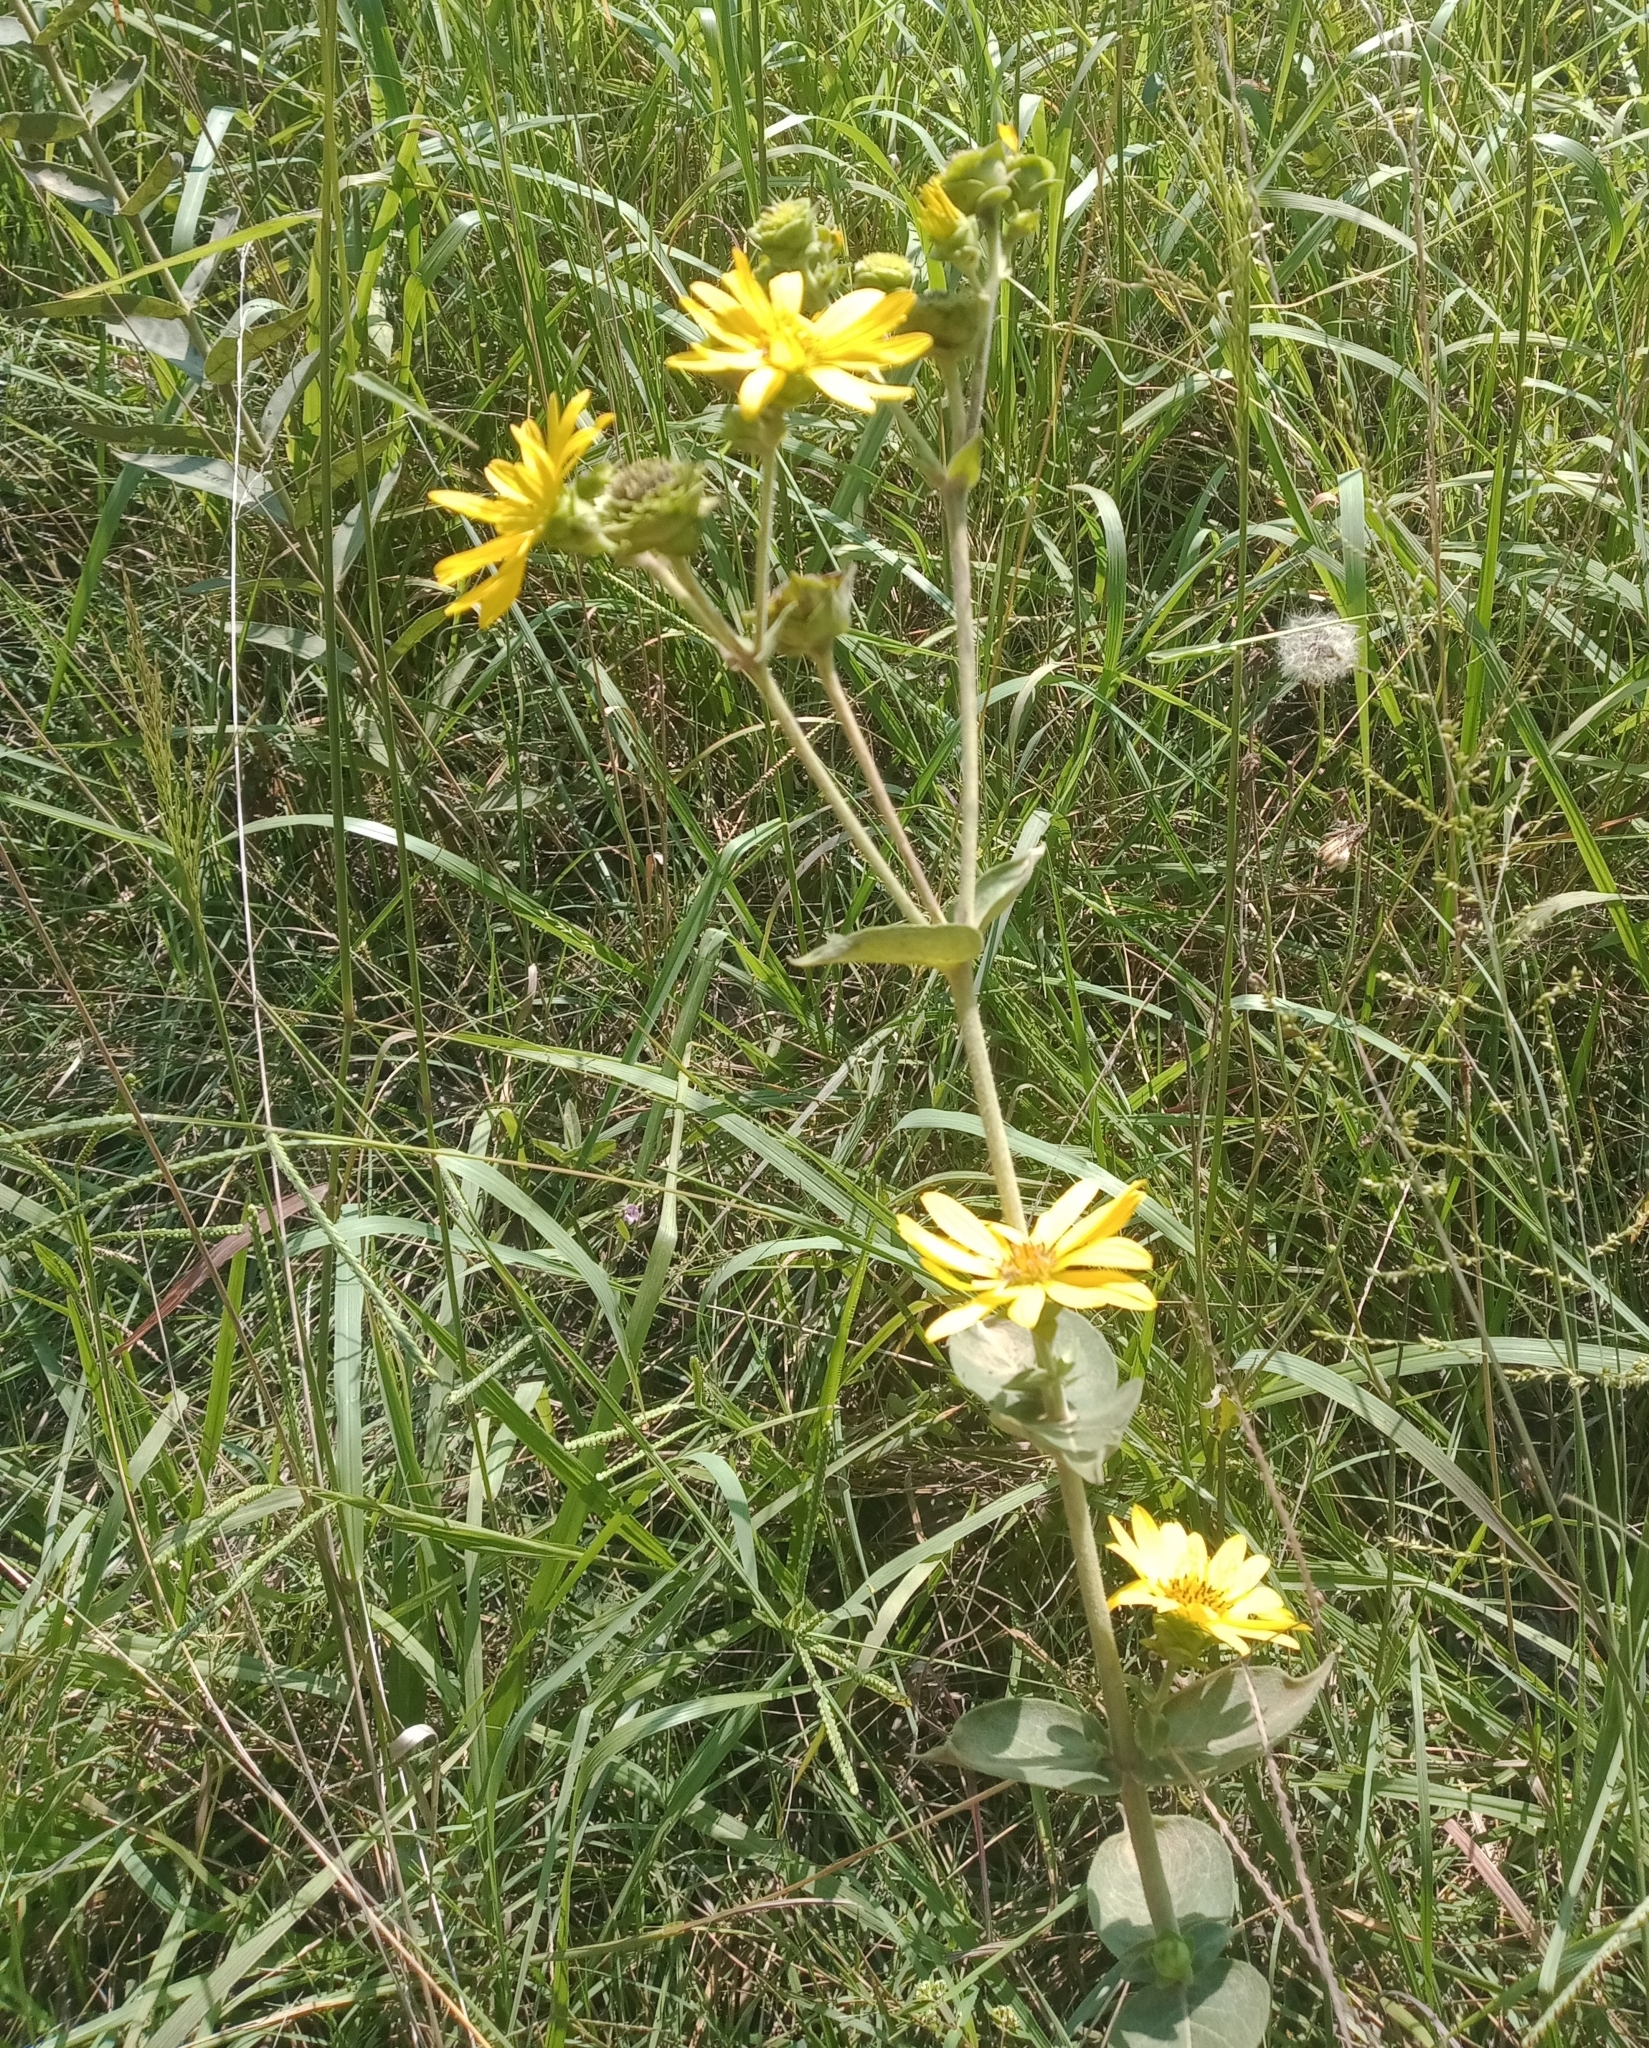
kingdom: Plantae
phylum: Tracheophyta
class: Magnoliopsida
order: Asterales
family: Asteraceae
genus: Silphium
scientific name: Silphium integrifolium
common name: Whole-leaf rosinweed
